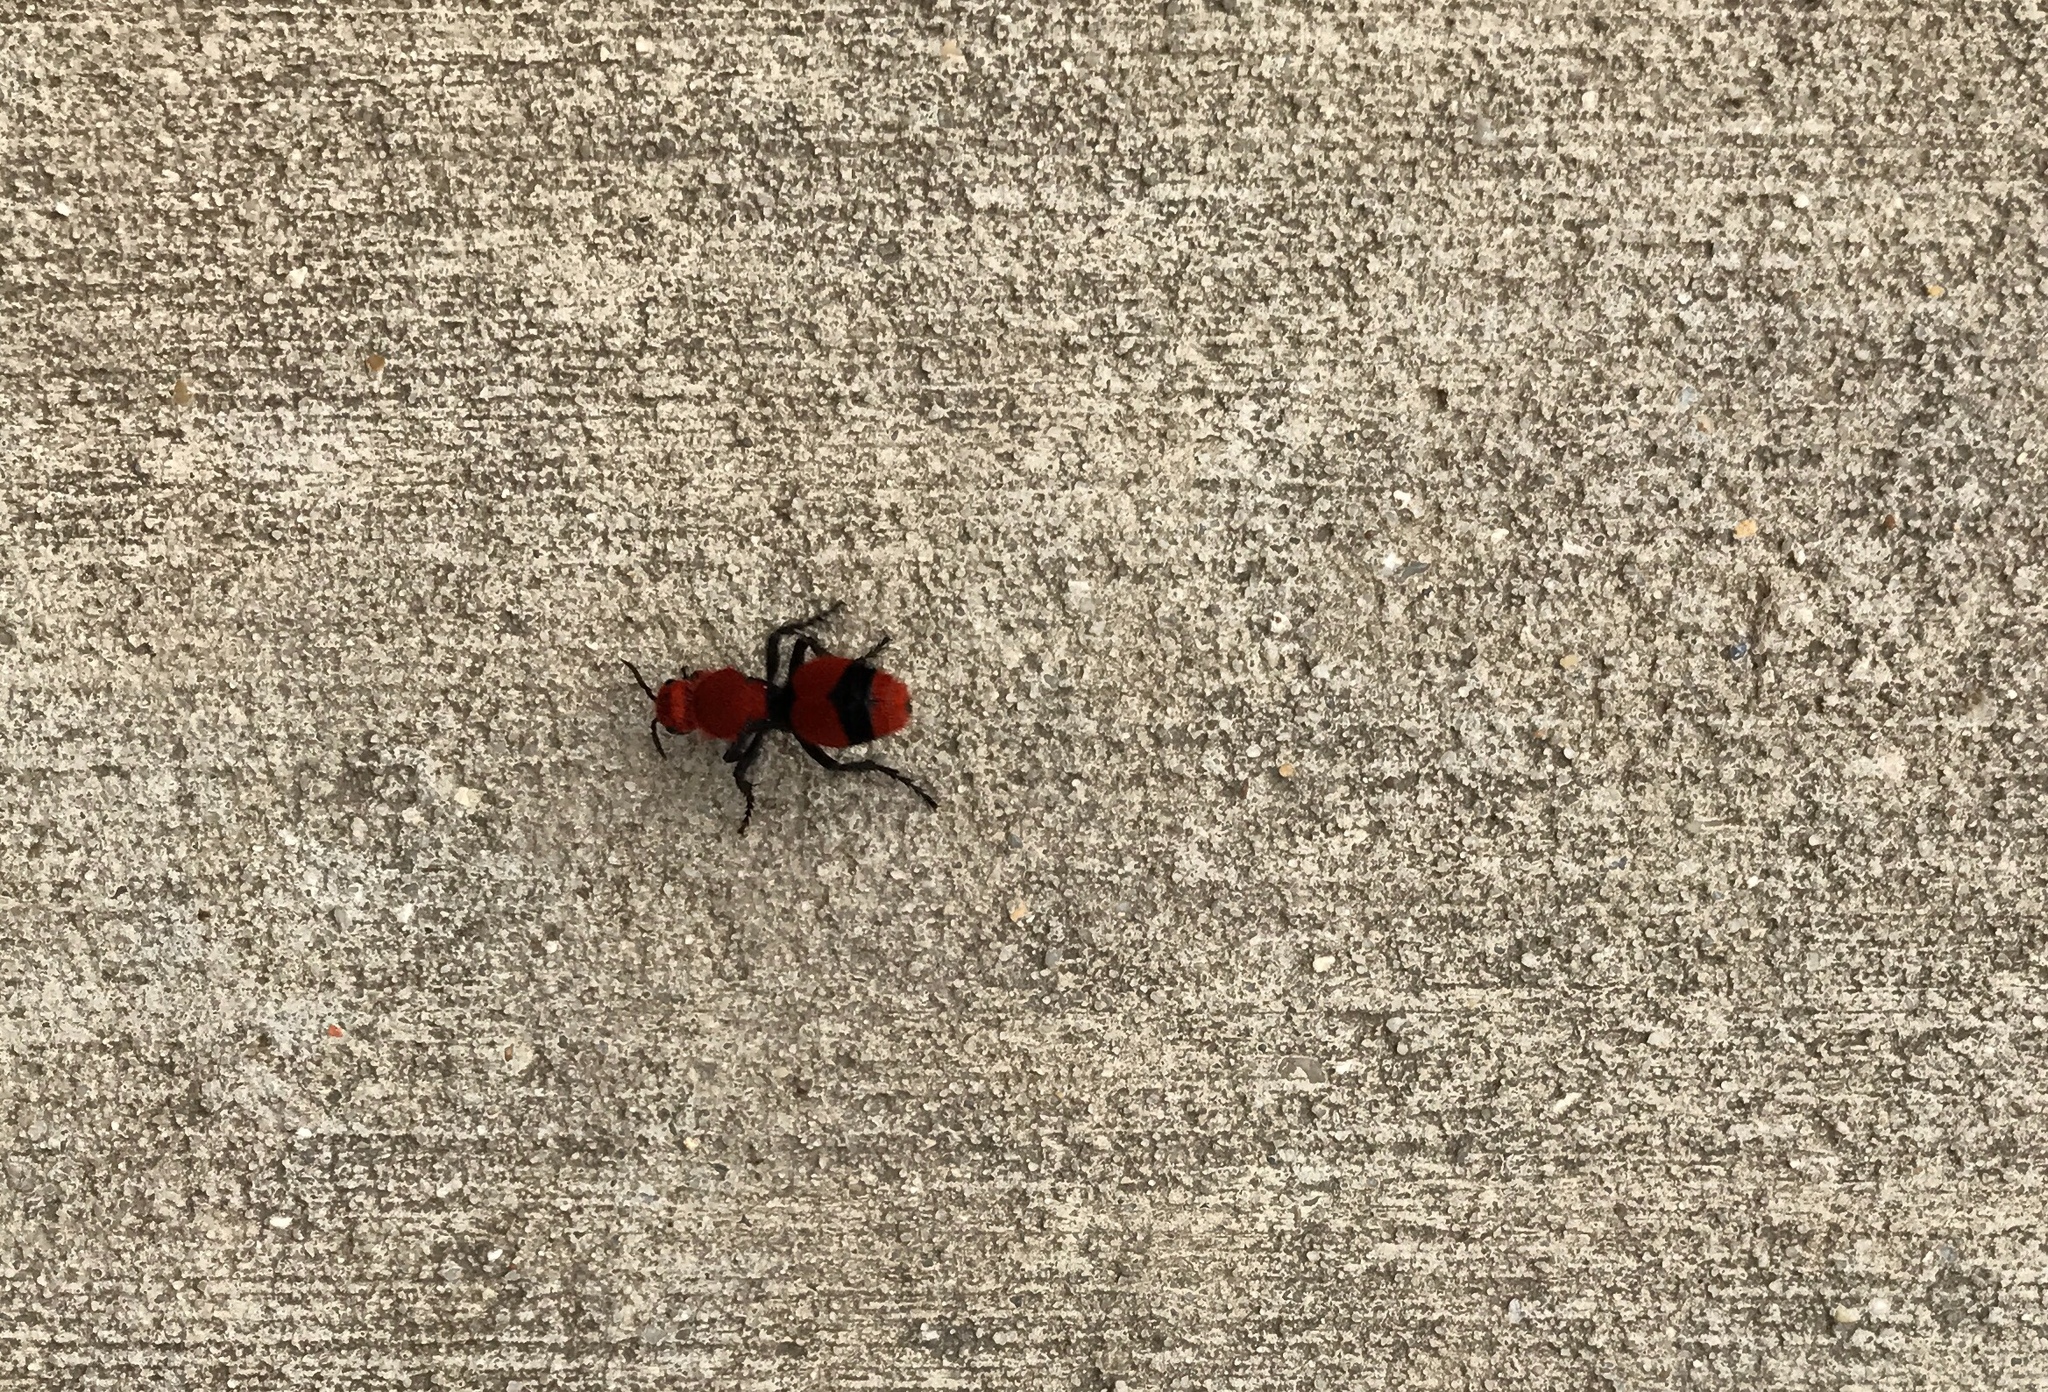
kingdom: Animalia
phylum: Arthropoda
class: Insecta
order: Hymenoptera
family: Mutillidae
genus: Dasymutilla
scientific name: Dasymutilla occidentalis
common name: Common eastern velvet ant
